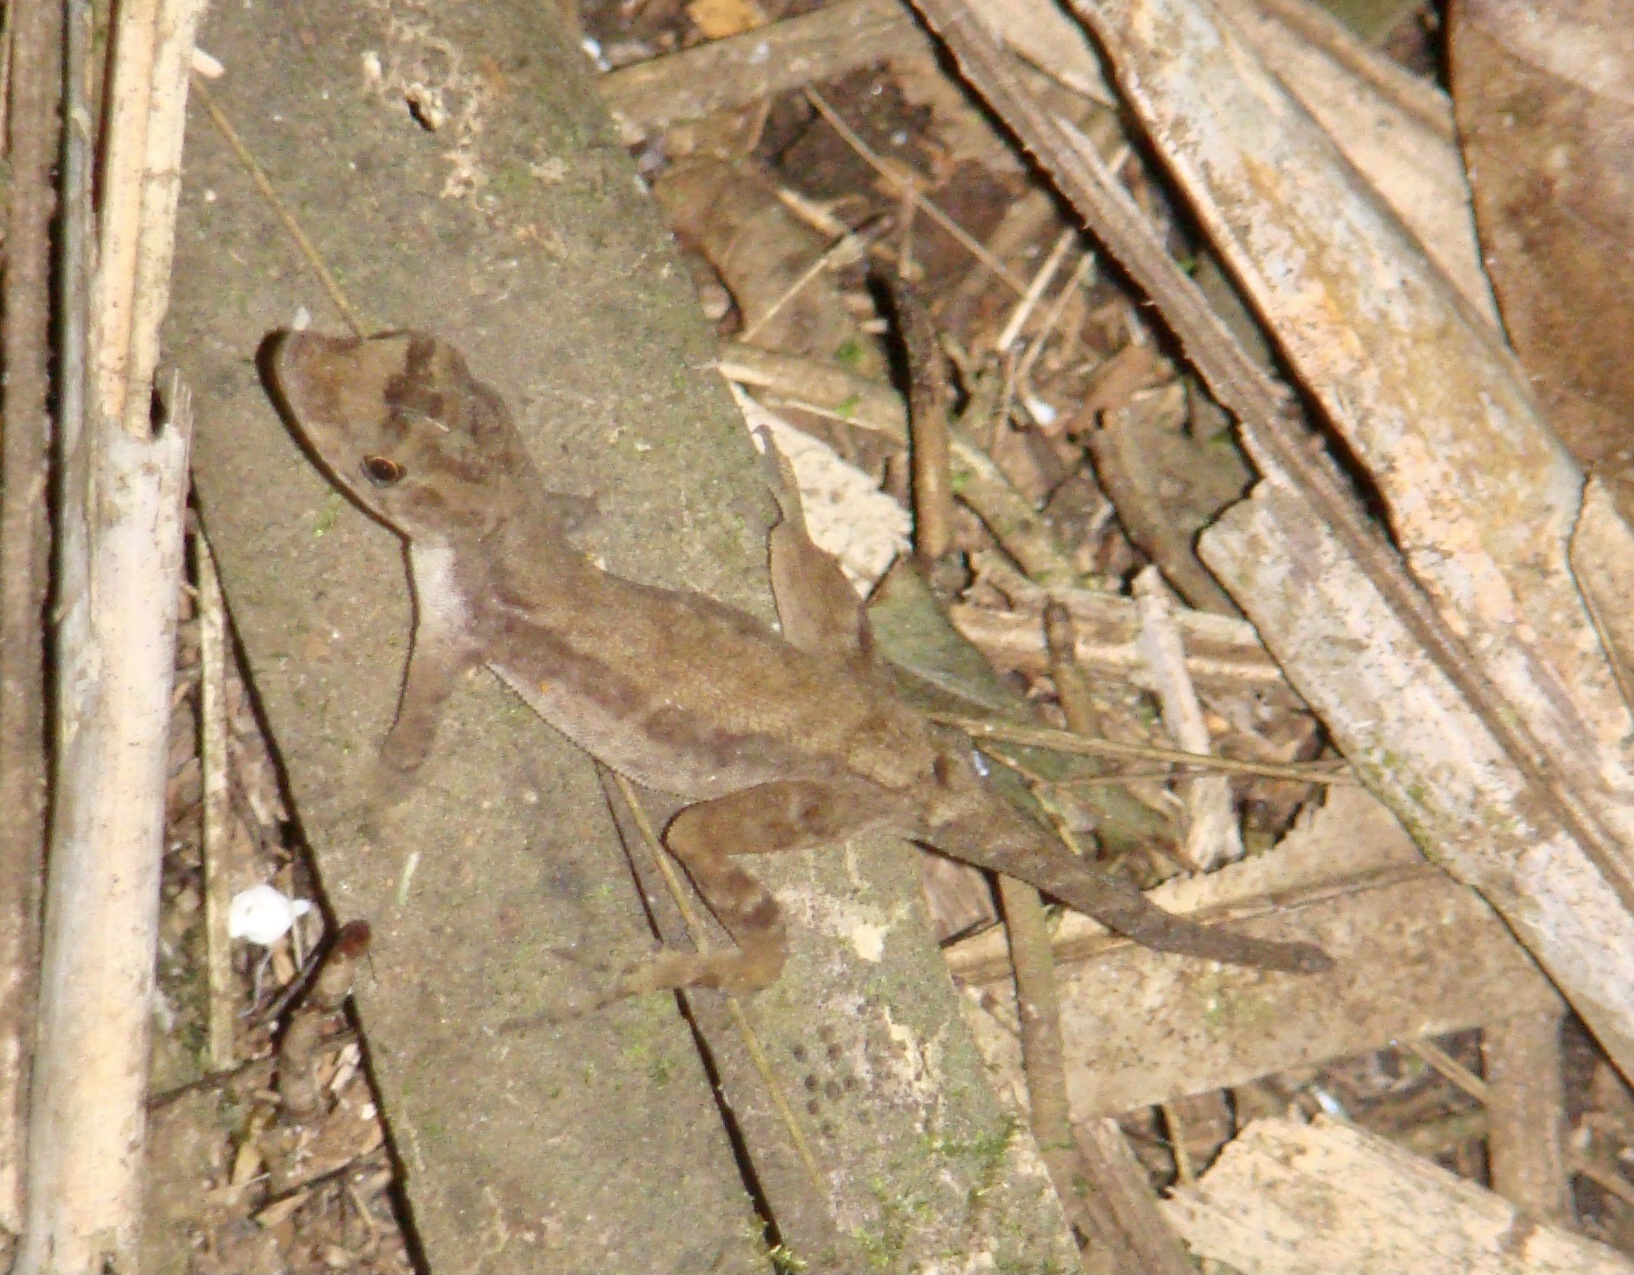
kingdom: Animalia
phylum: Chordata
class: Squamata
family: Dactyloidae
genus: Anolis
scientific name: Anolis humilis
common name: Humble anole
